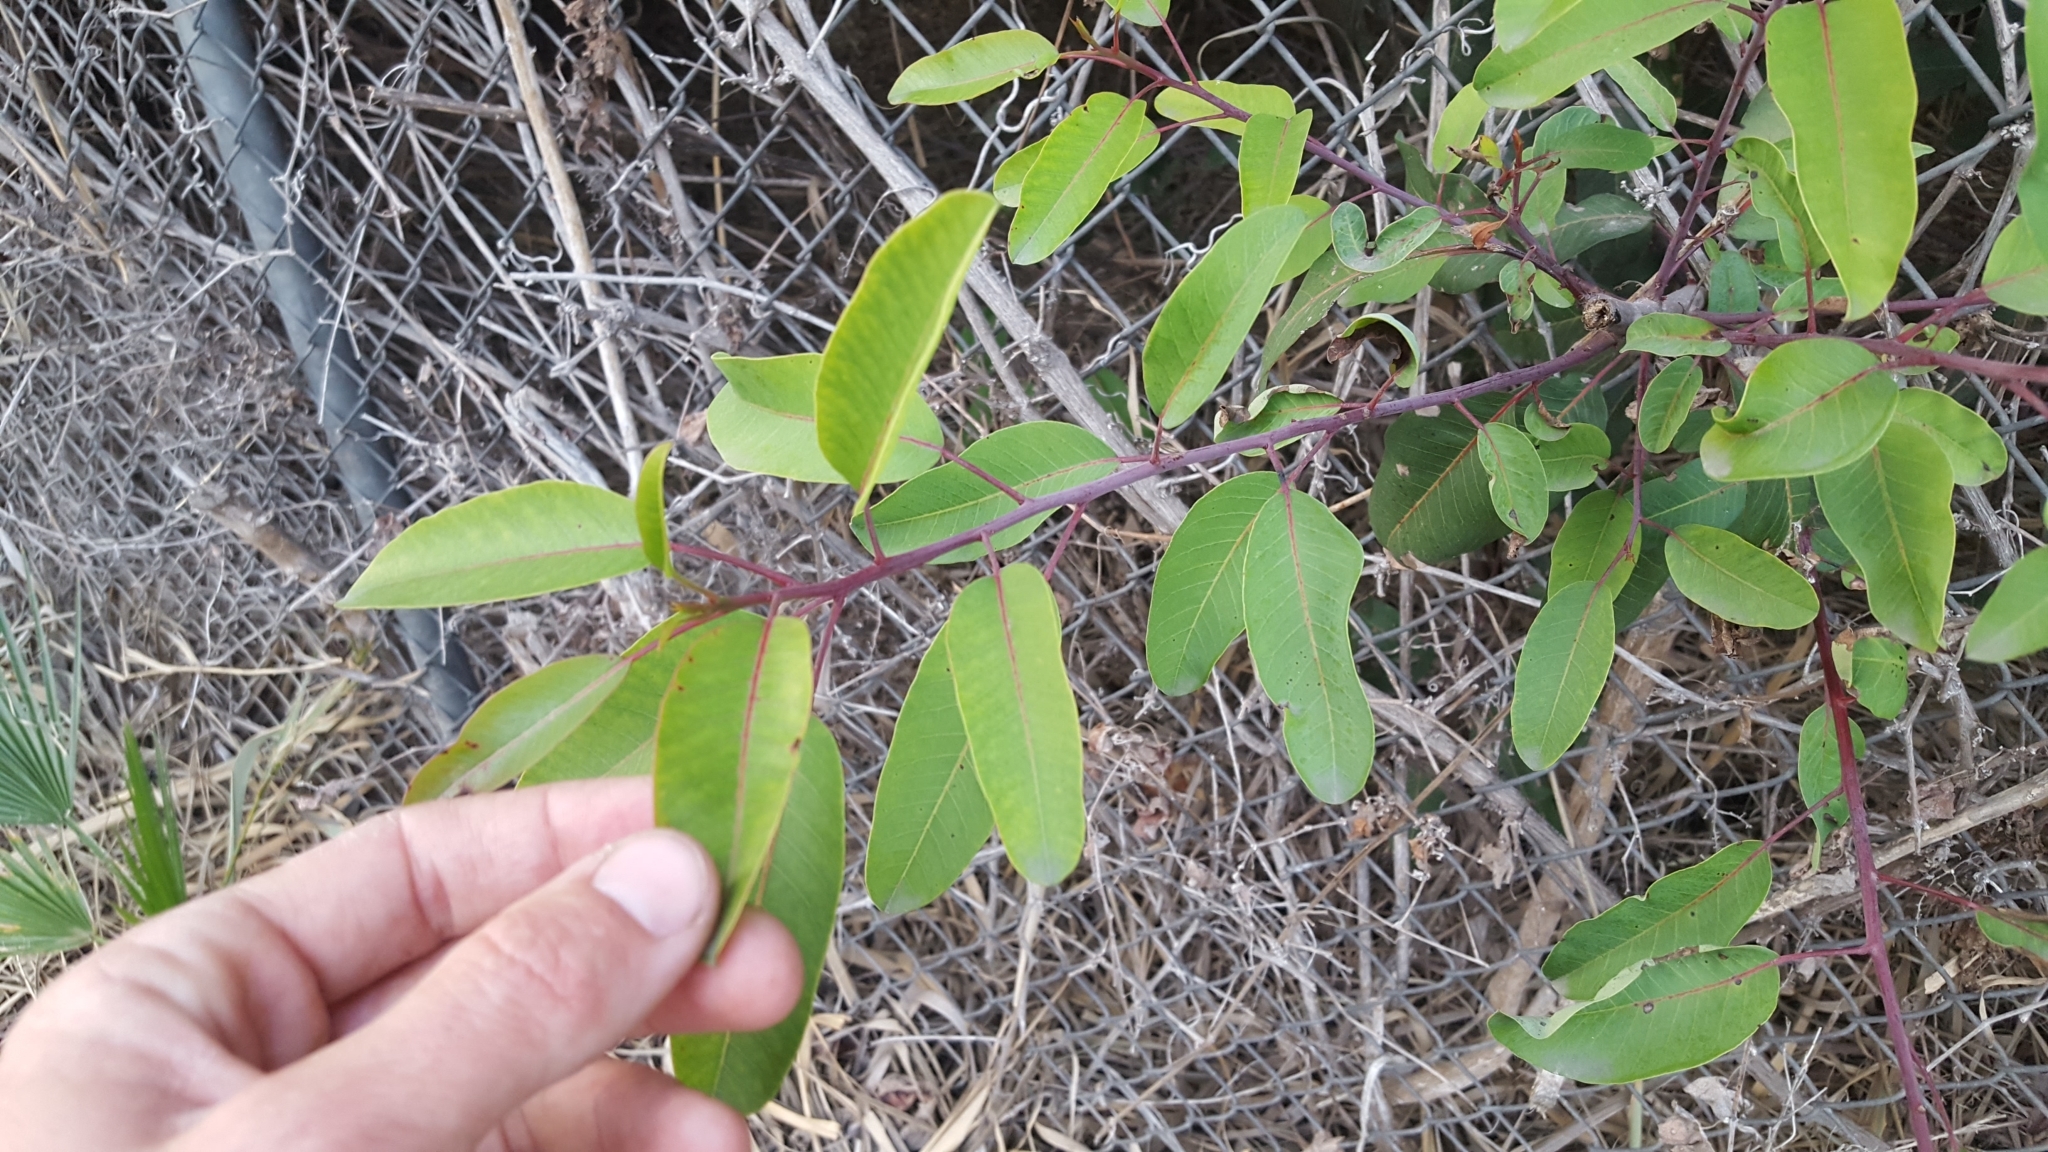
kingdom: Plantae
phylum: Tracheophyta
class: Magnoliopsida
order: Sapindales
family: Anacardiaceae
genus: Malosma
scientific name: Malosma laurina
